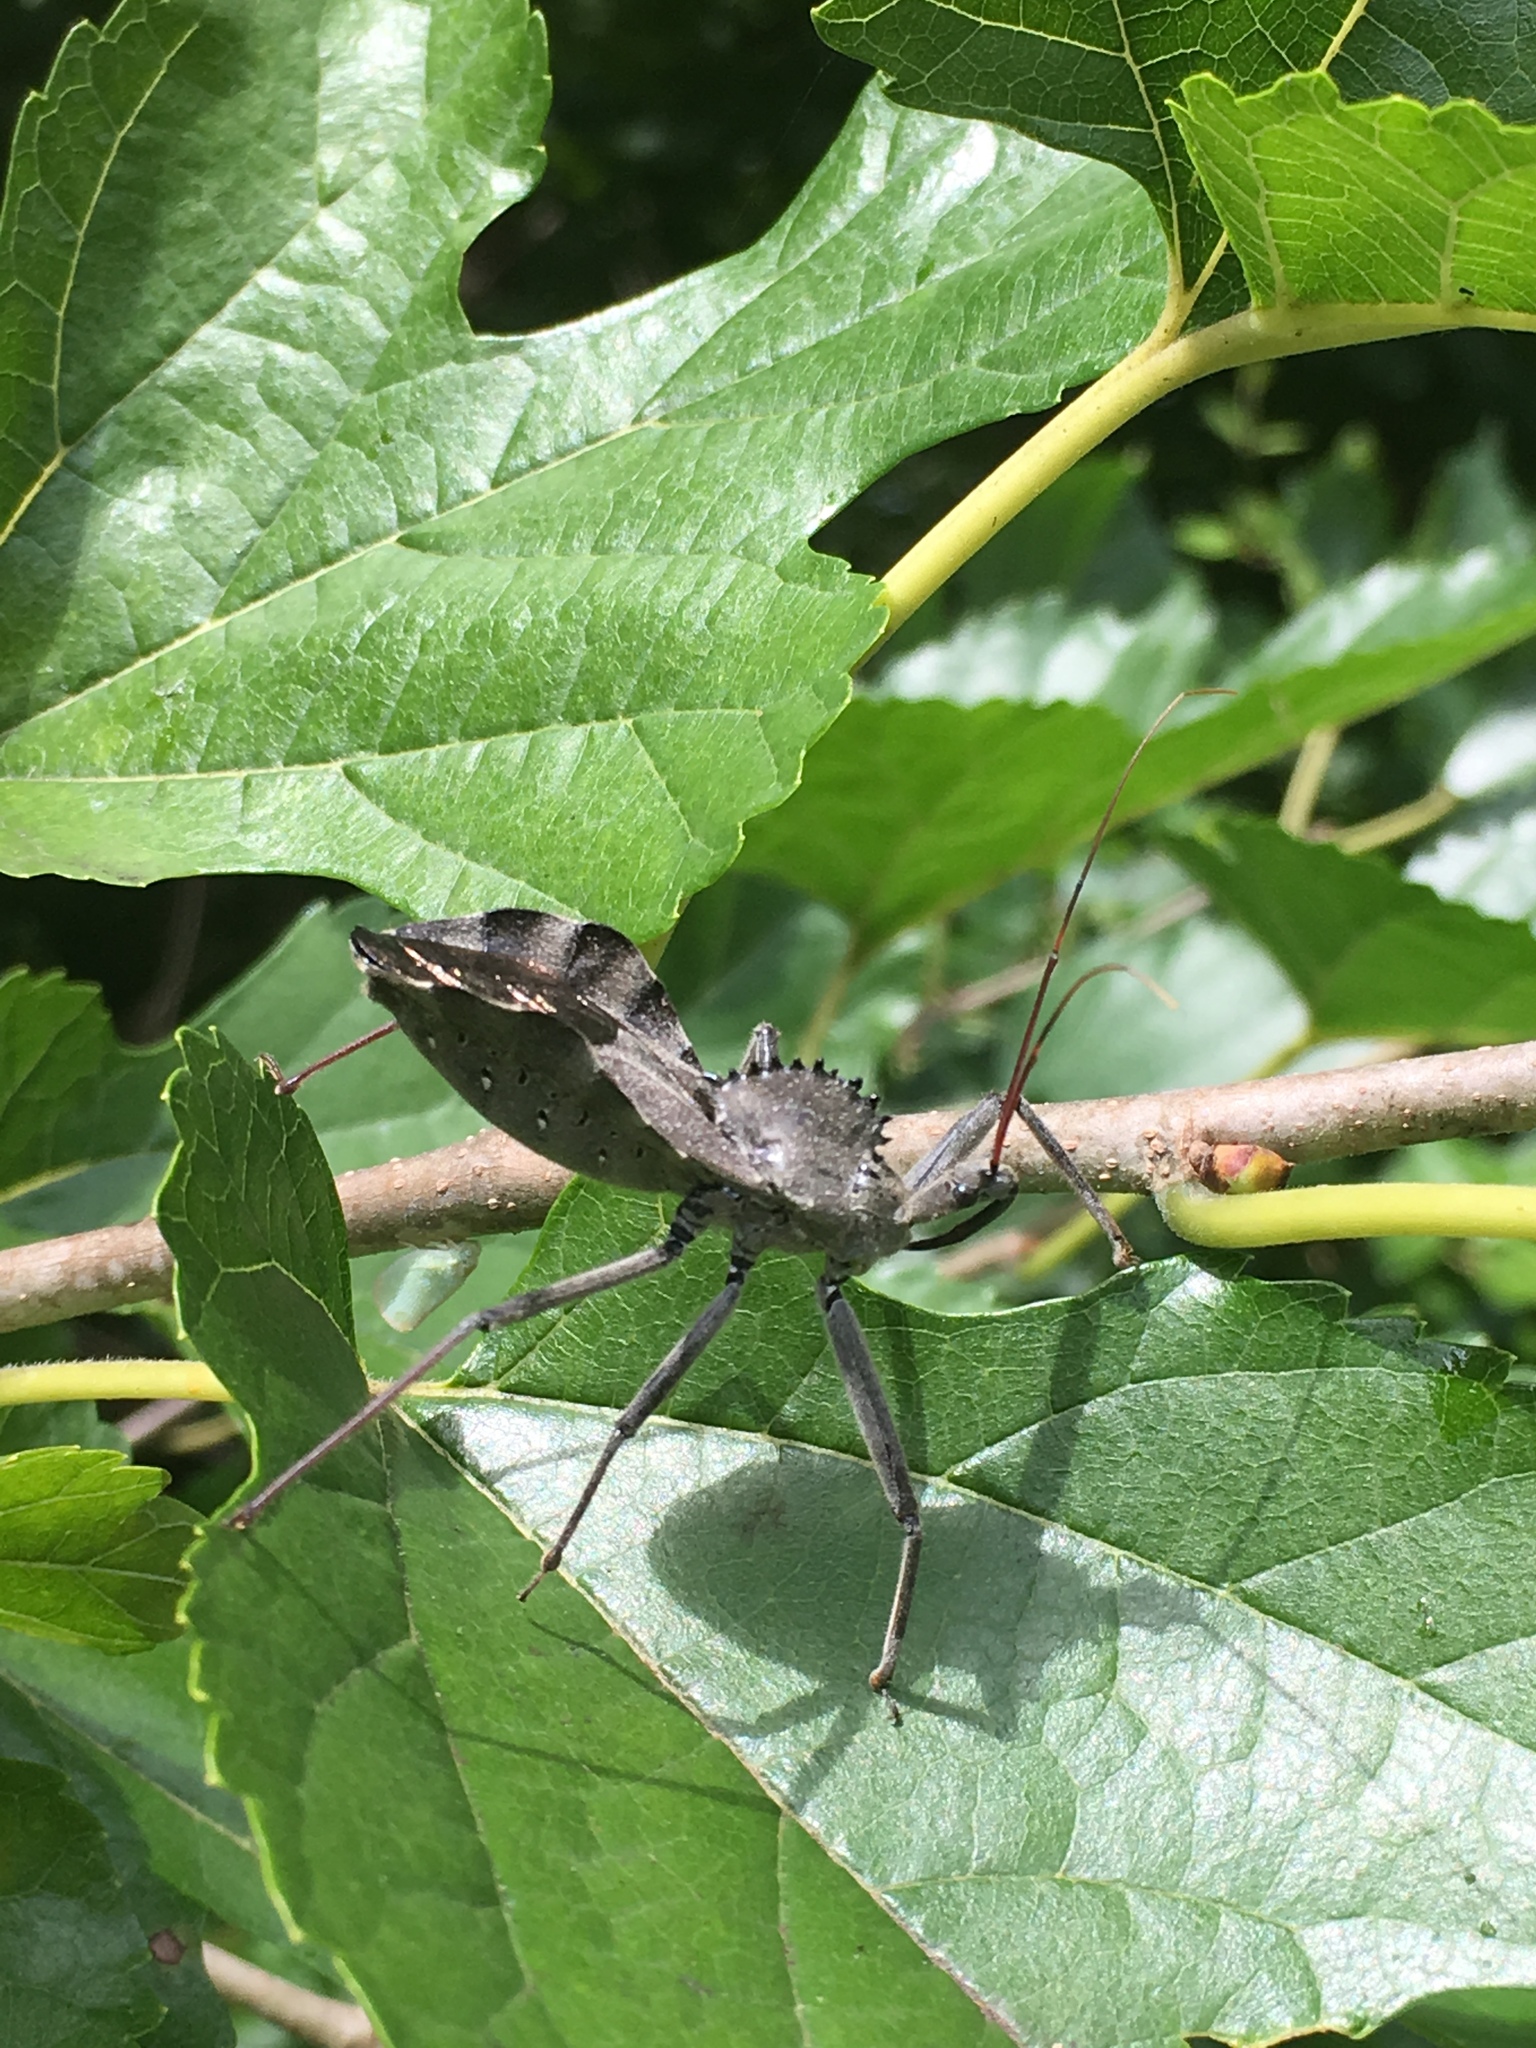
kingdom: Animalia
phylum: Arthropoda
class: Insecta
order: Hemiptera
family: Reduviidae
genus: Arilus
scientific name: Arilus cristatus
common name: North american wheel bug
